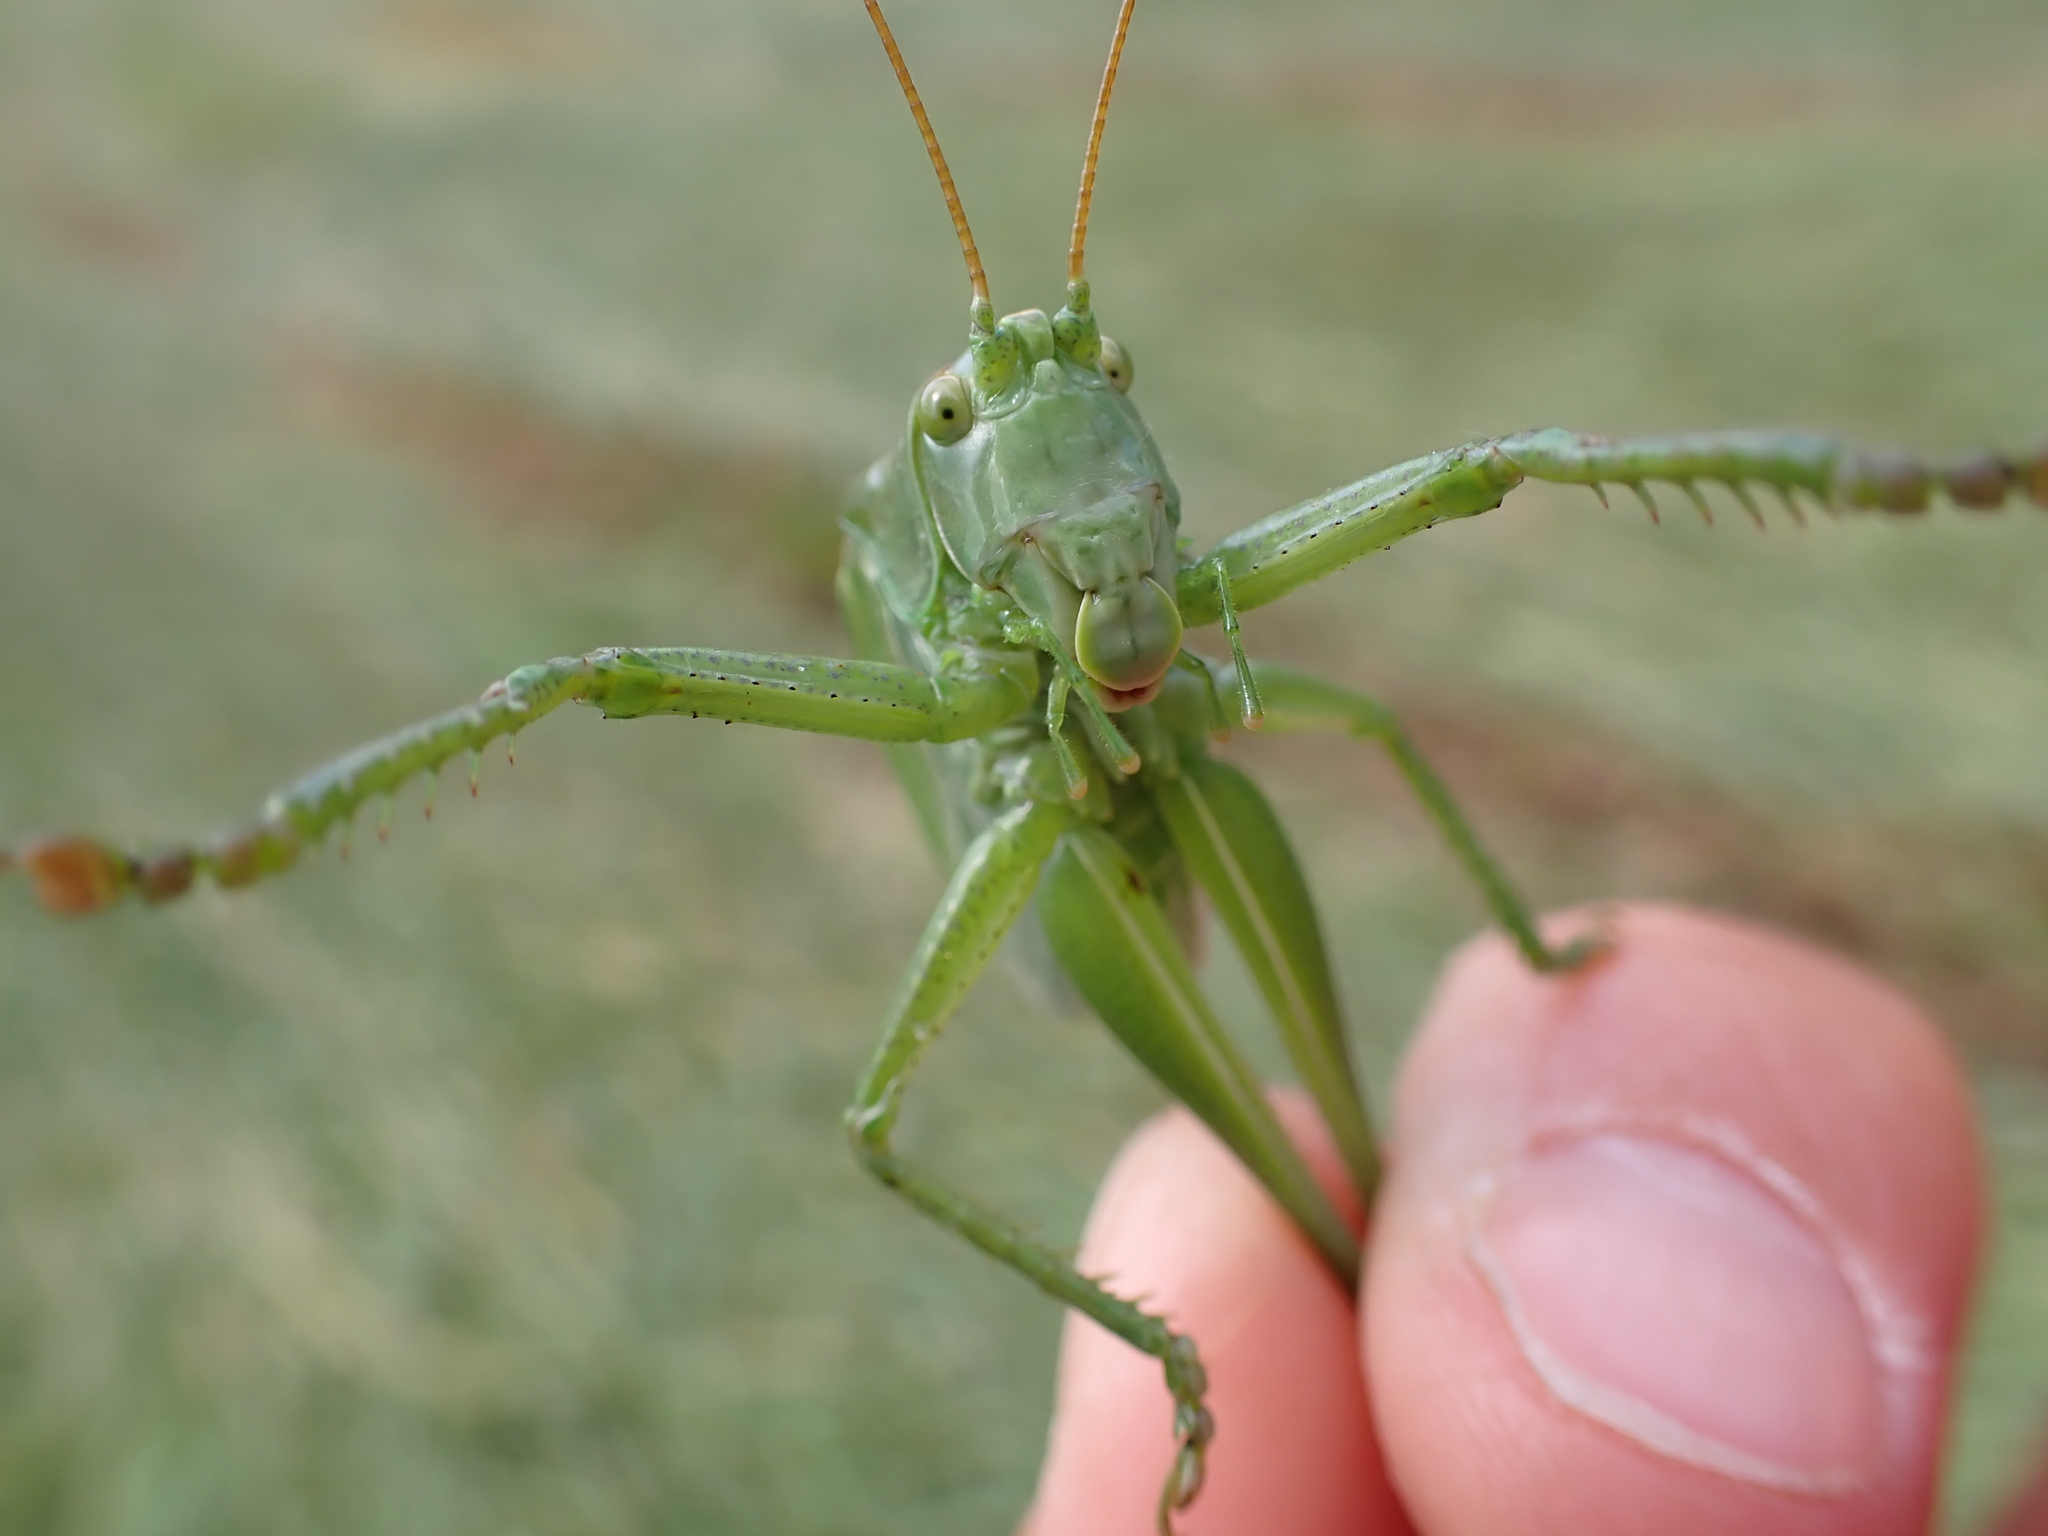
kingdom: Animalia
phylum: Arthropoda
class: Insecta
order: Orthoptera
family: Tettigoniidae
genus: Tettigonia
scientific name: Tettigonia cantans
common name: Upland green bush-cricket
